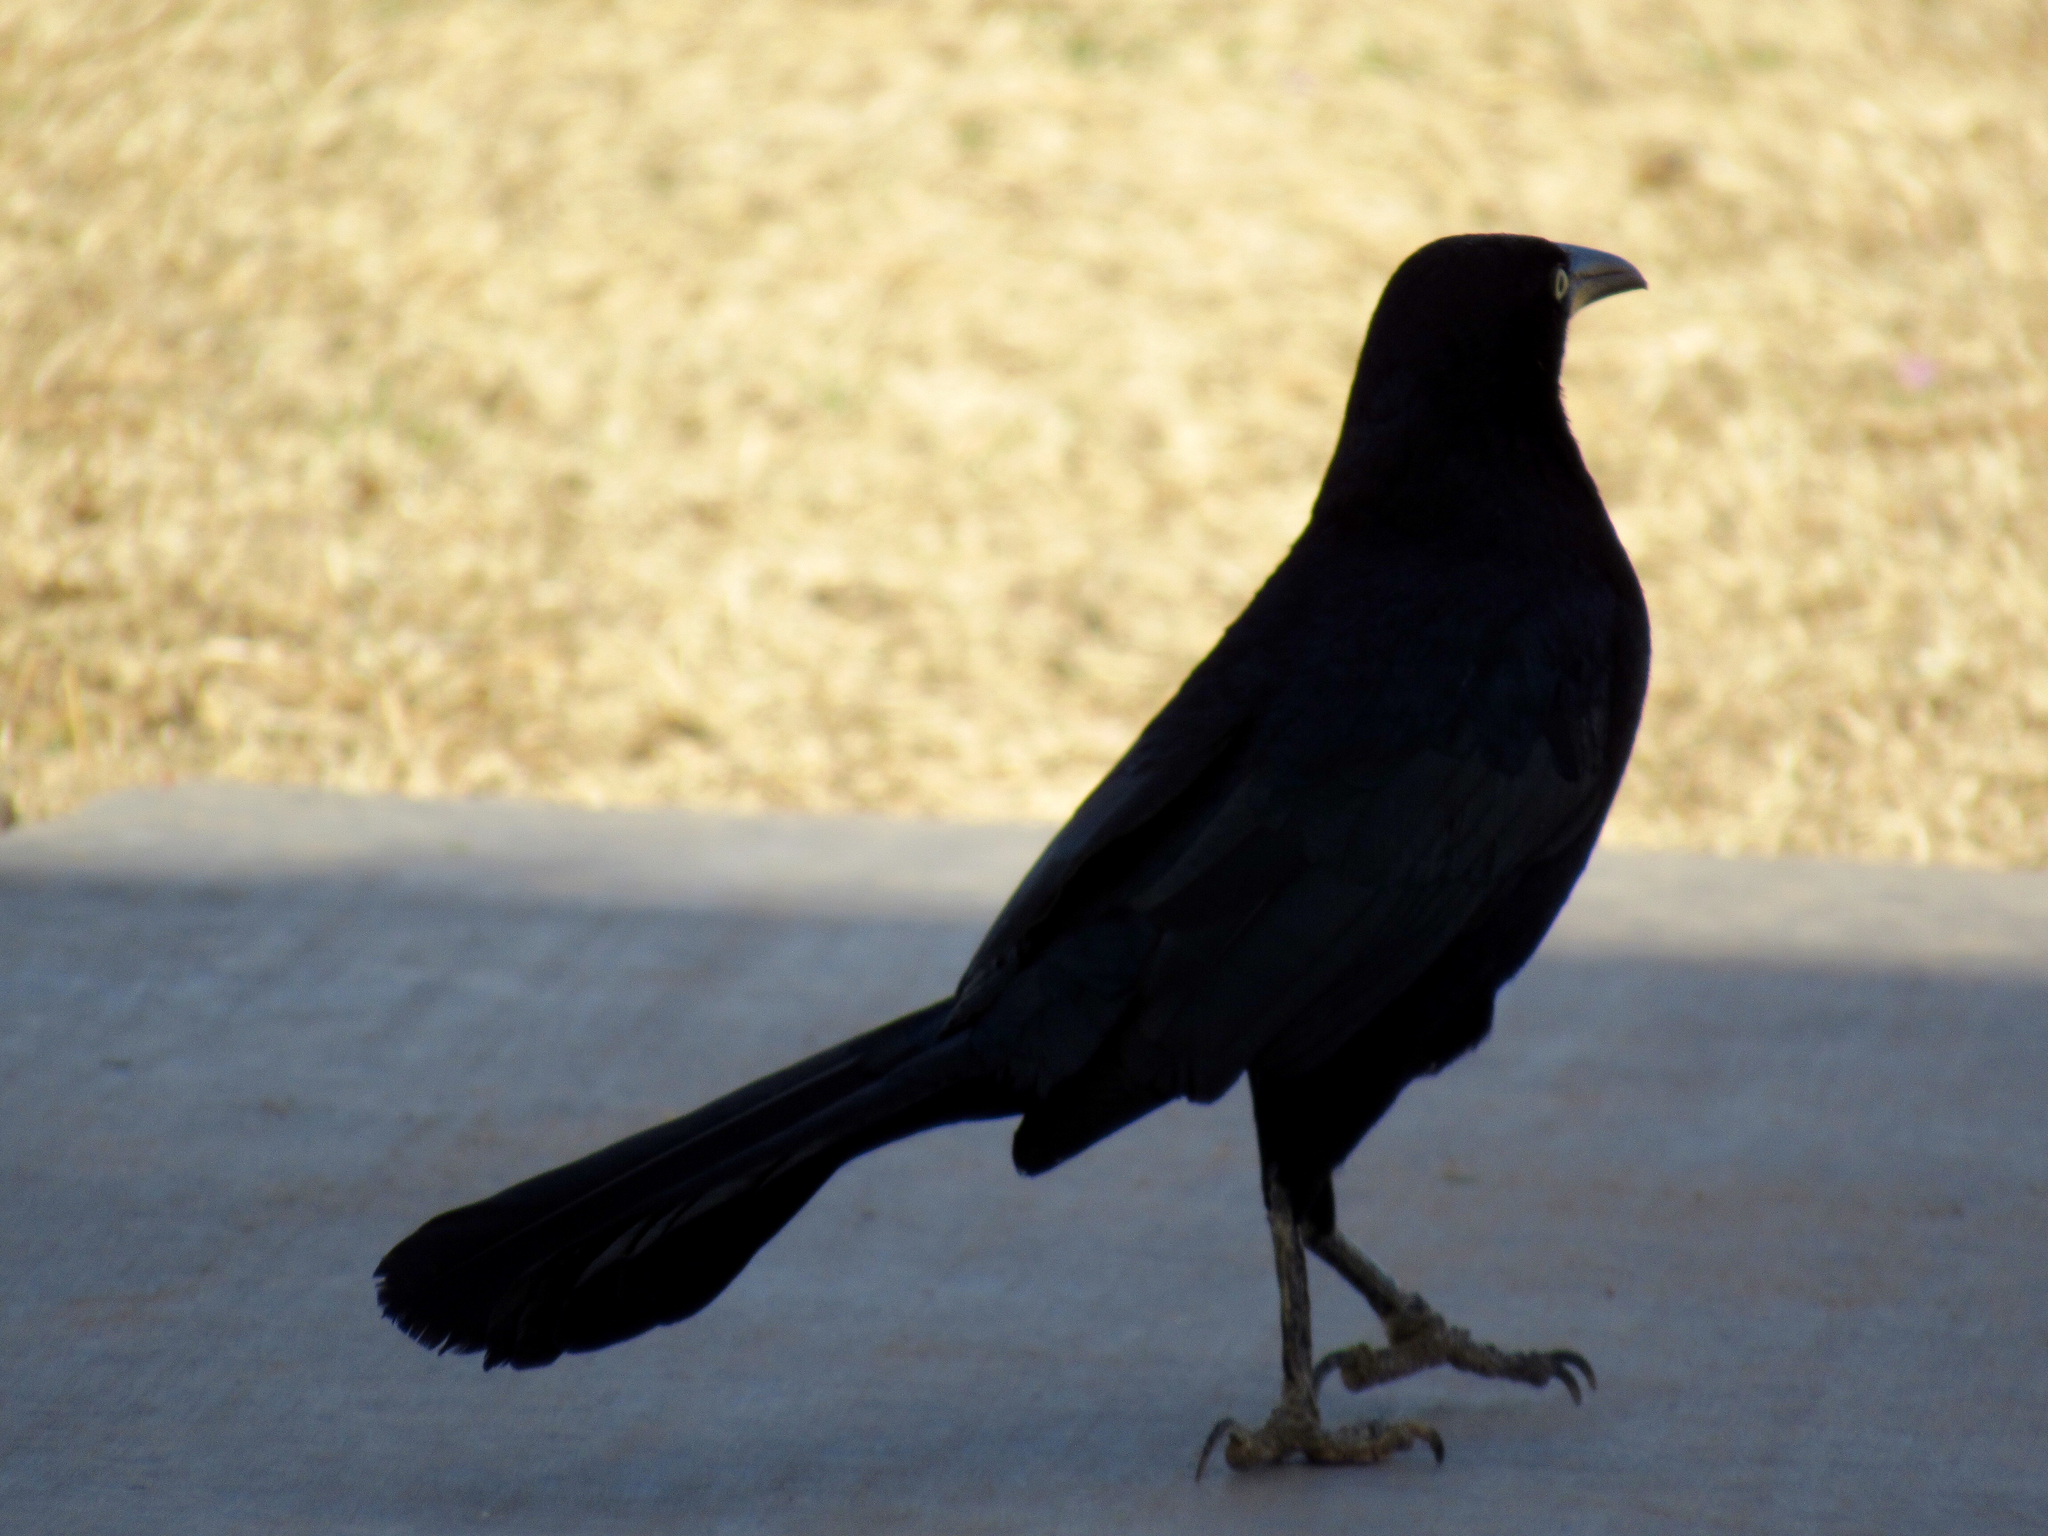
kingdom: Animalia
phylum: Chordata
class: Aves
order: Passeriformes
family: Icteridae
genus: Quiscalus
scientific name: Quiscalus mexicanus
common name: Great-tailed grackle
